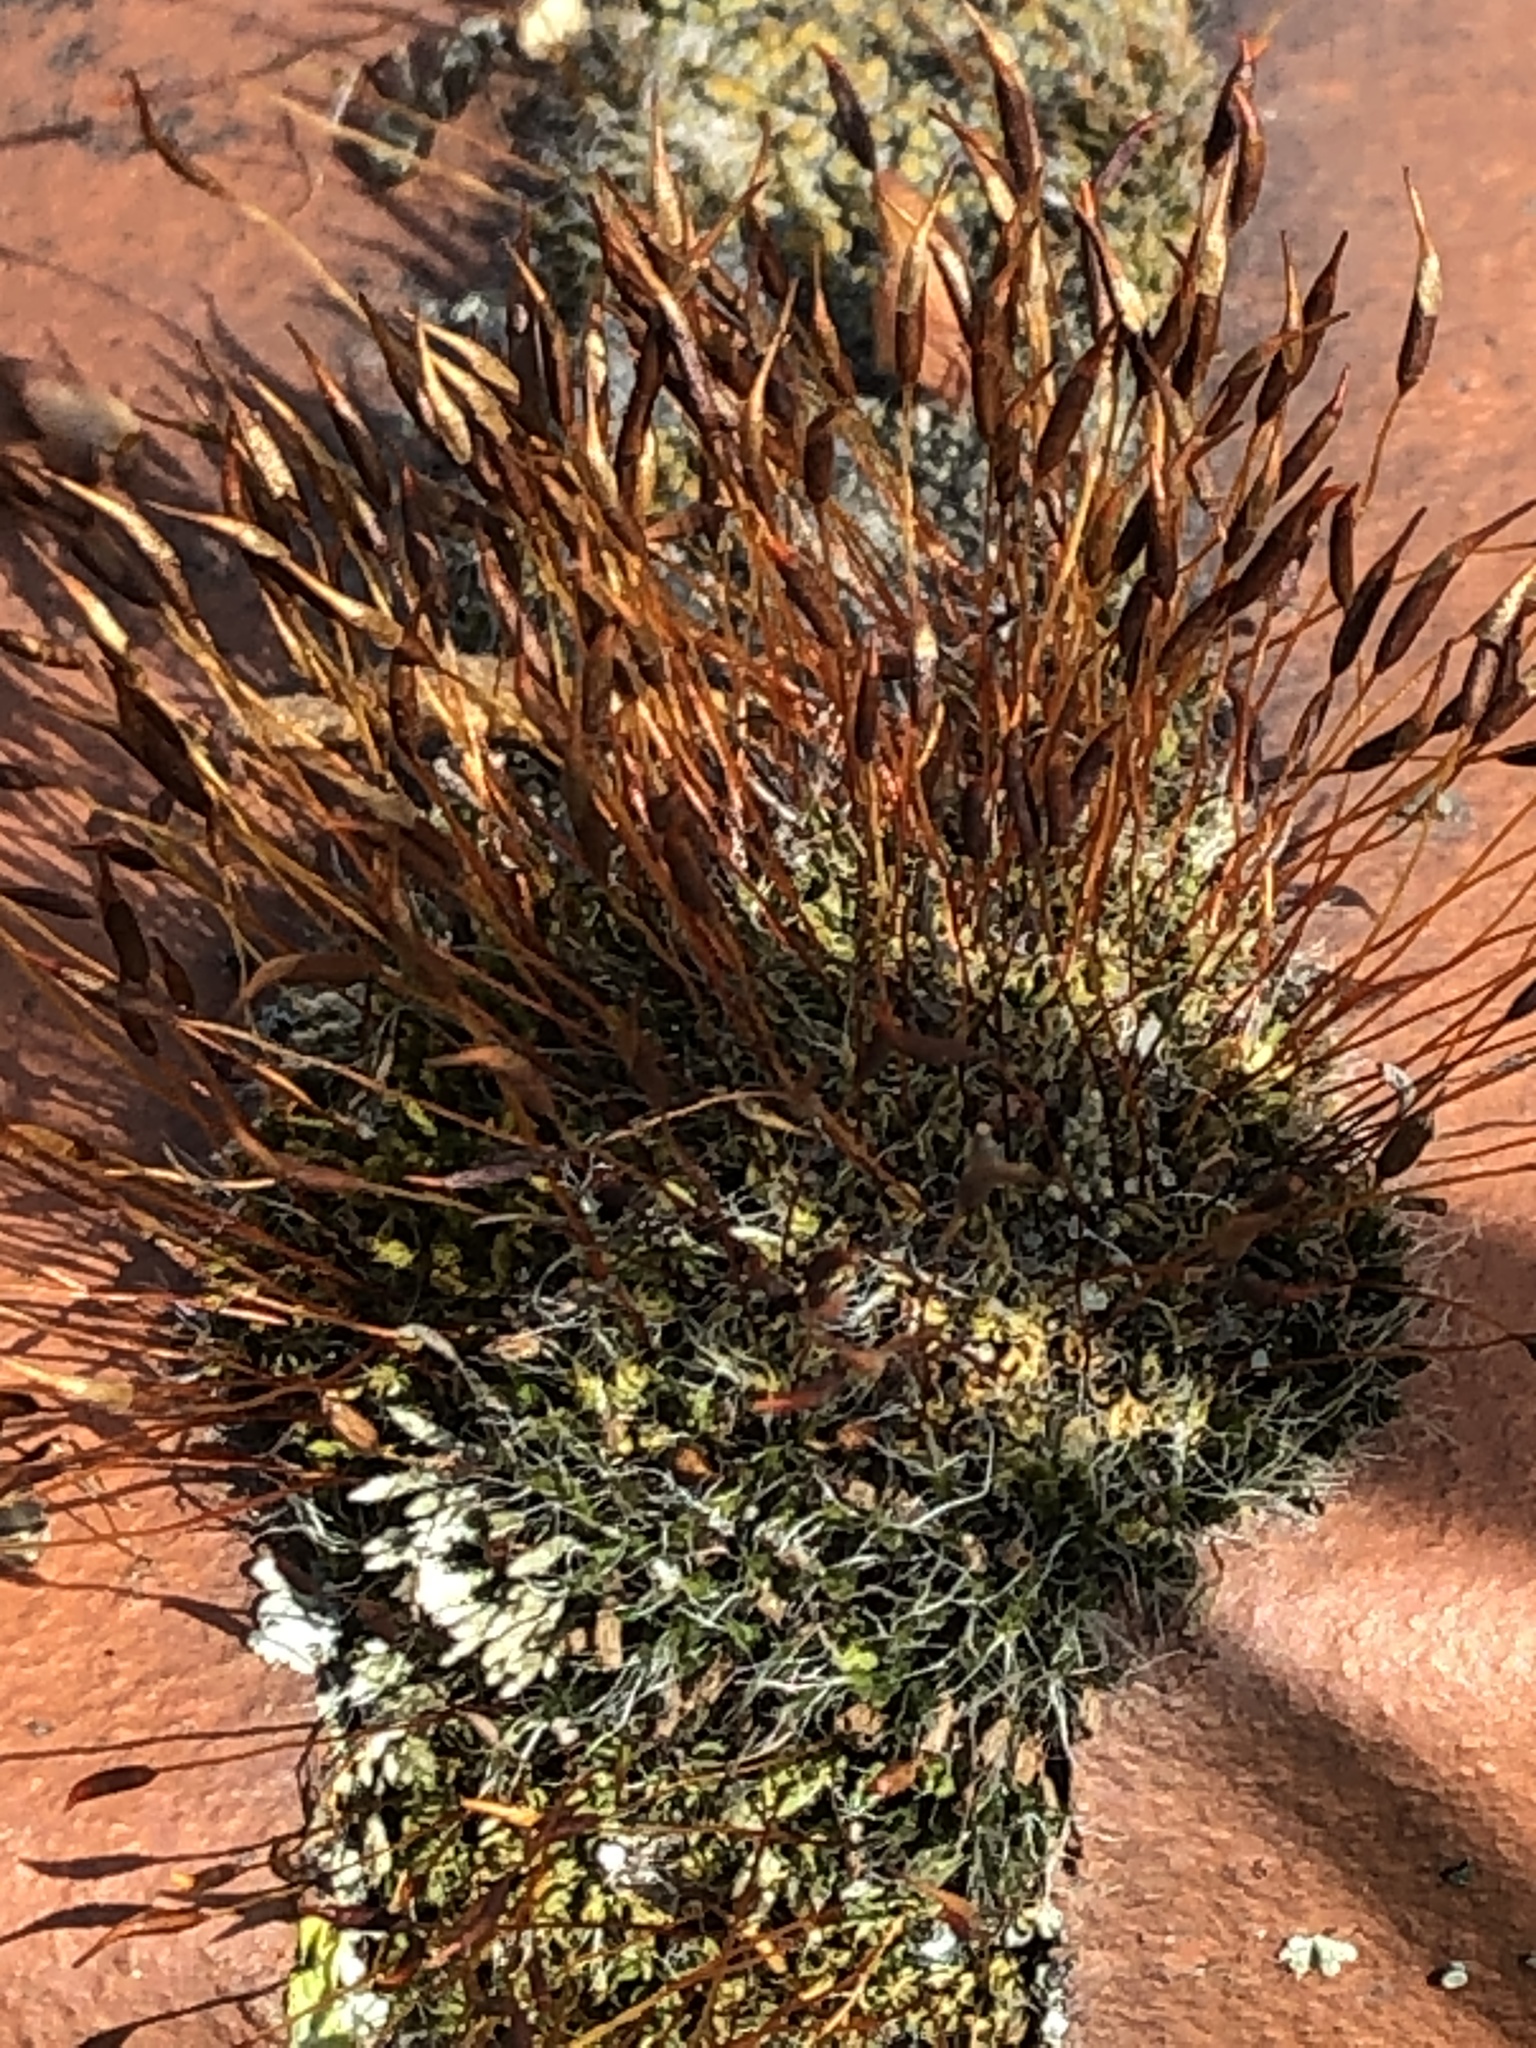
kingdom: Plantae
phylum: Bryophyta
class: Bryopsida
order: Pottiales
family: Pottiaceae
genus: Tortula
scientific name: Tortula muralis
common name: Wall screw-moss
